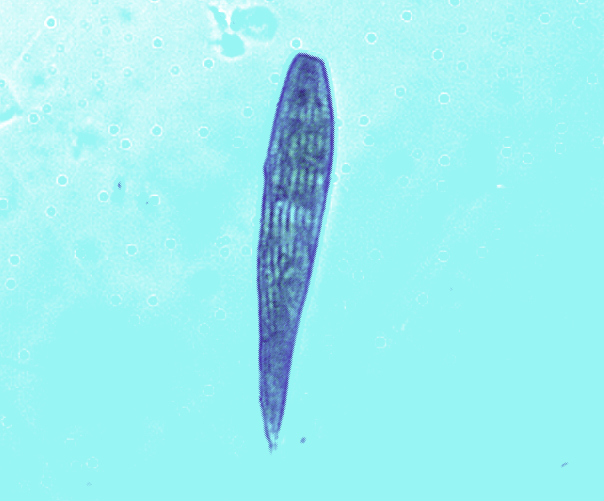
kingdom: Protozoa
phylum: Euglenozoa
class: Euglenoidea
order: Euglenida
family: Phacidae
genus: Lepocinclis
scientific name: Lepocinclis
